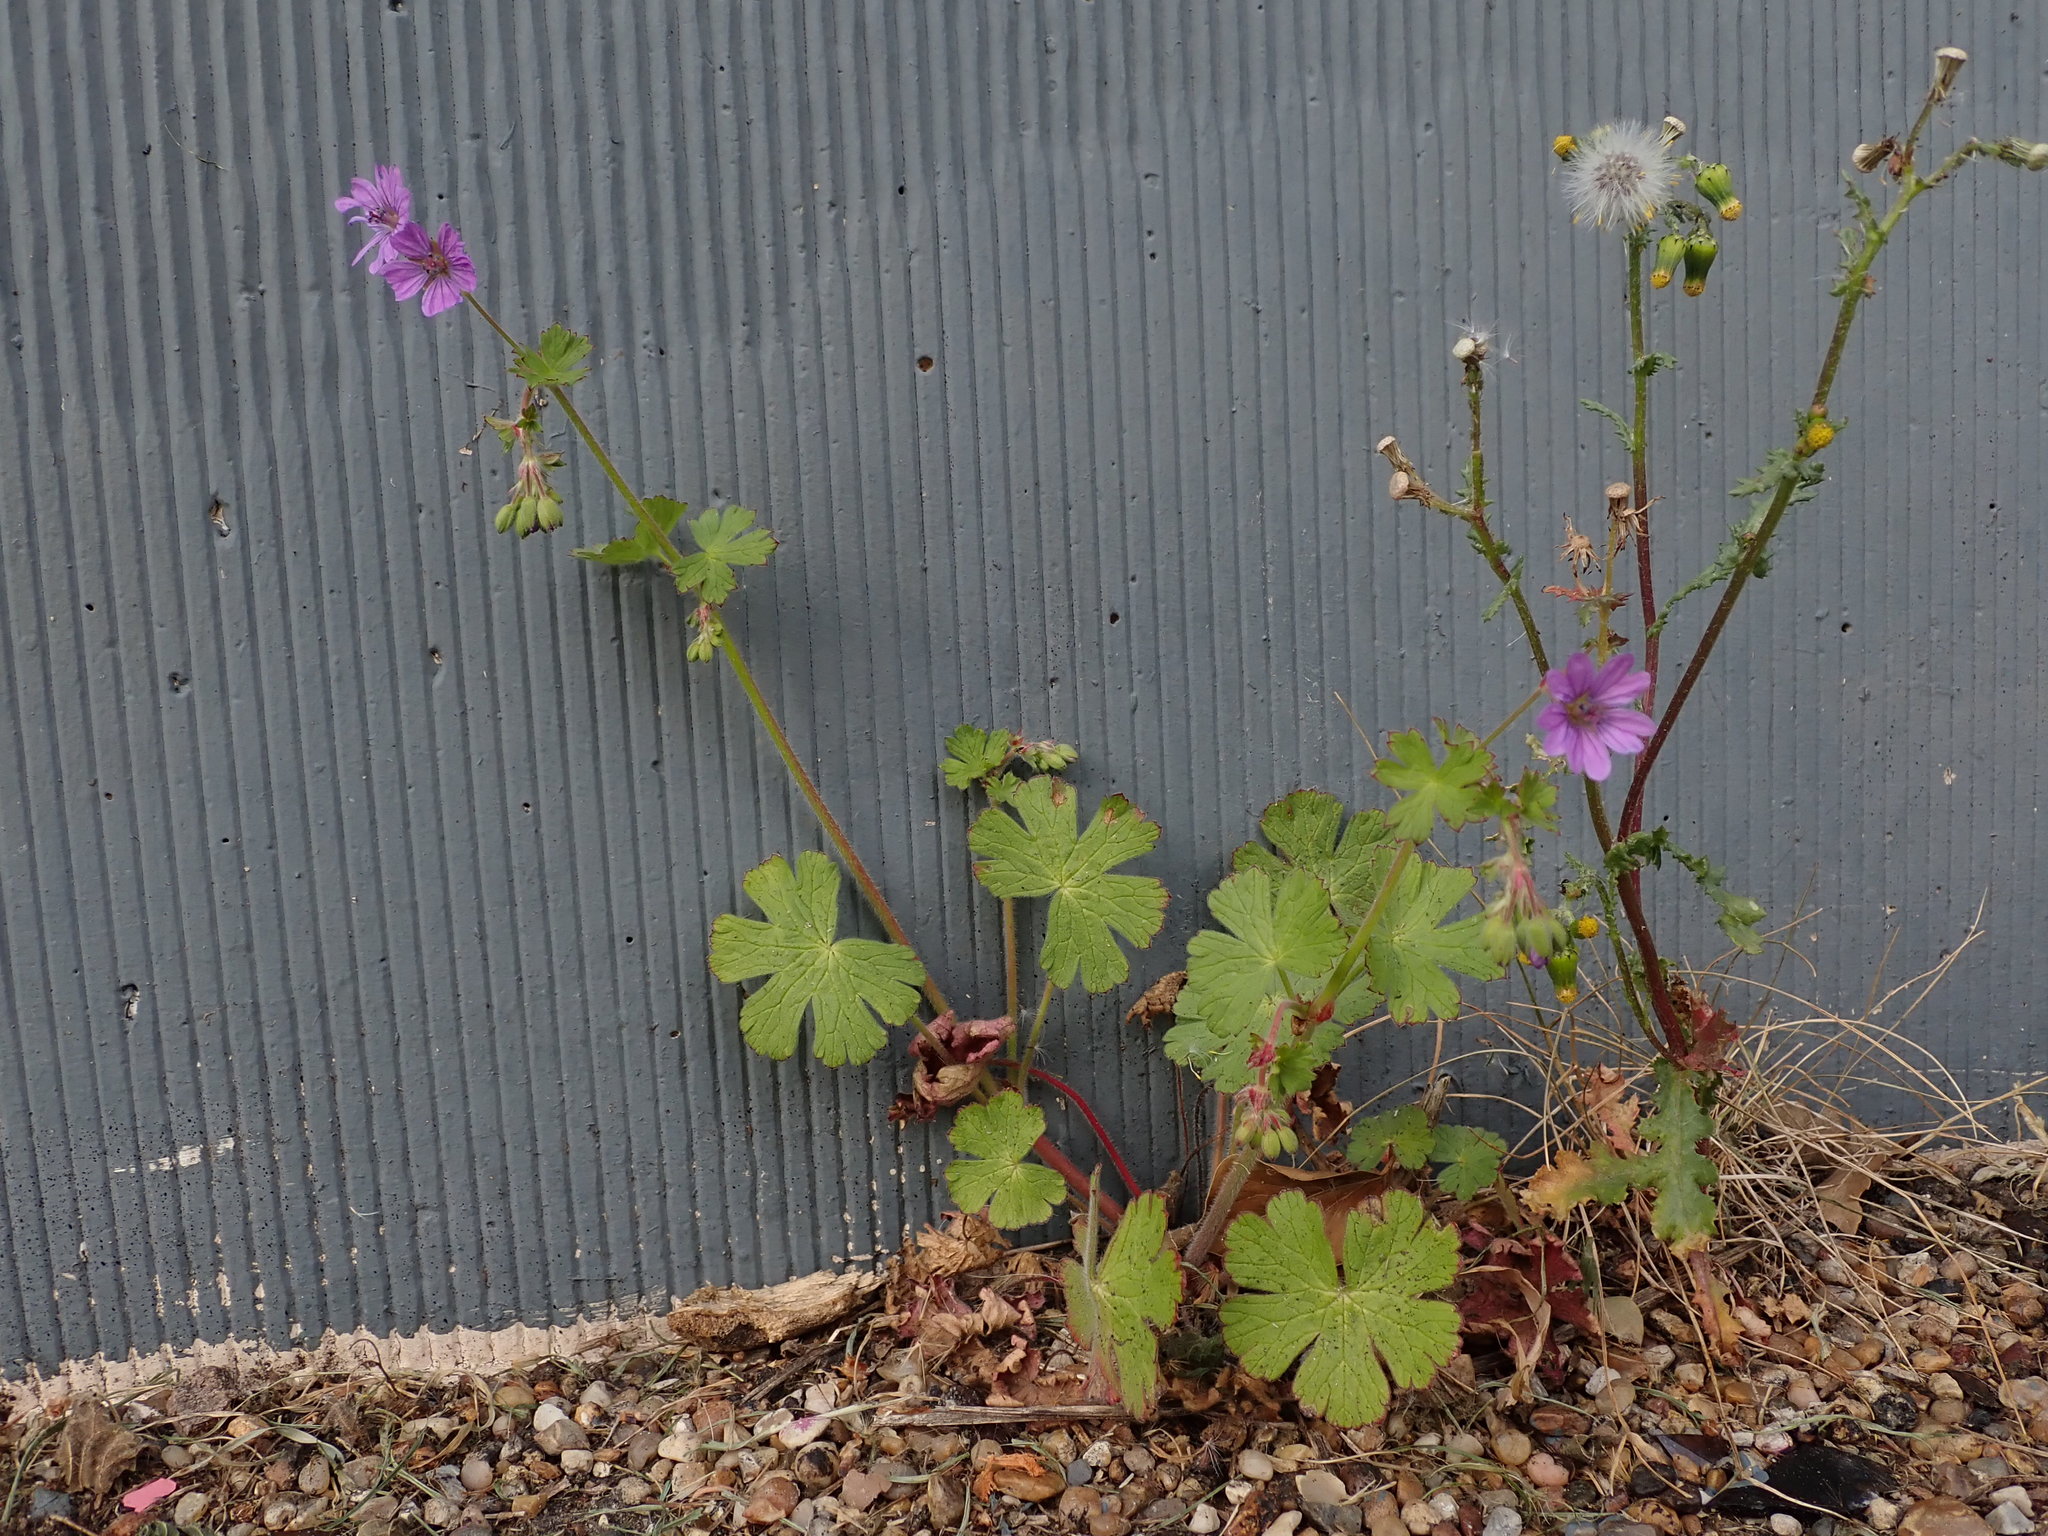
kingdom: Plantae
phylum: Tracheophyta
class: Magnoliopsida
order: Geraniales
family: Geraniaceae
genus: Geranium
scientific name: Geranium pyrenaicum
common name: Hedgerow crane's-bill
